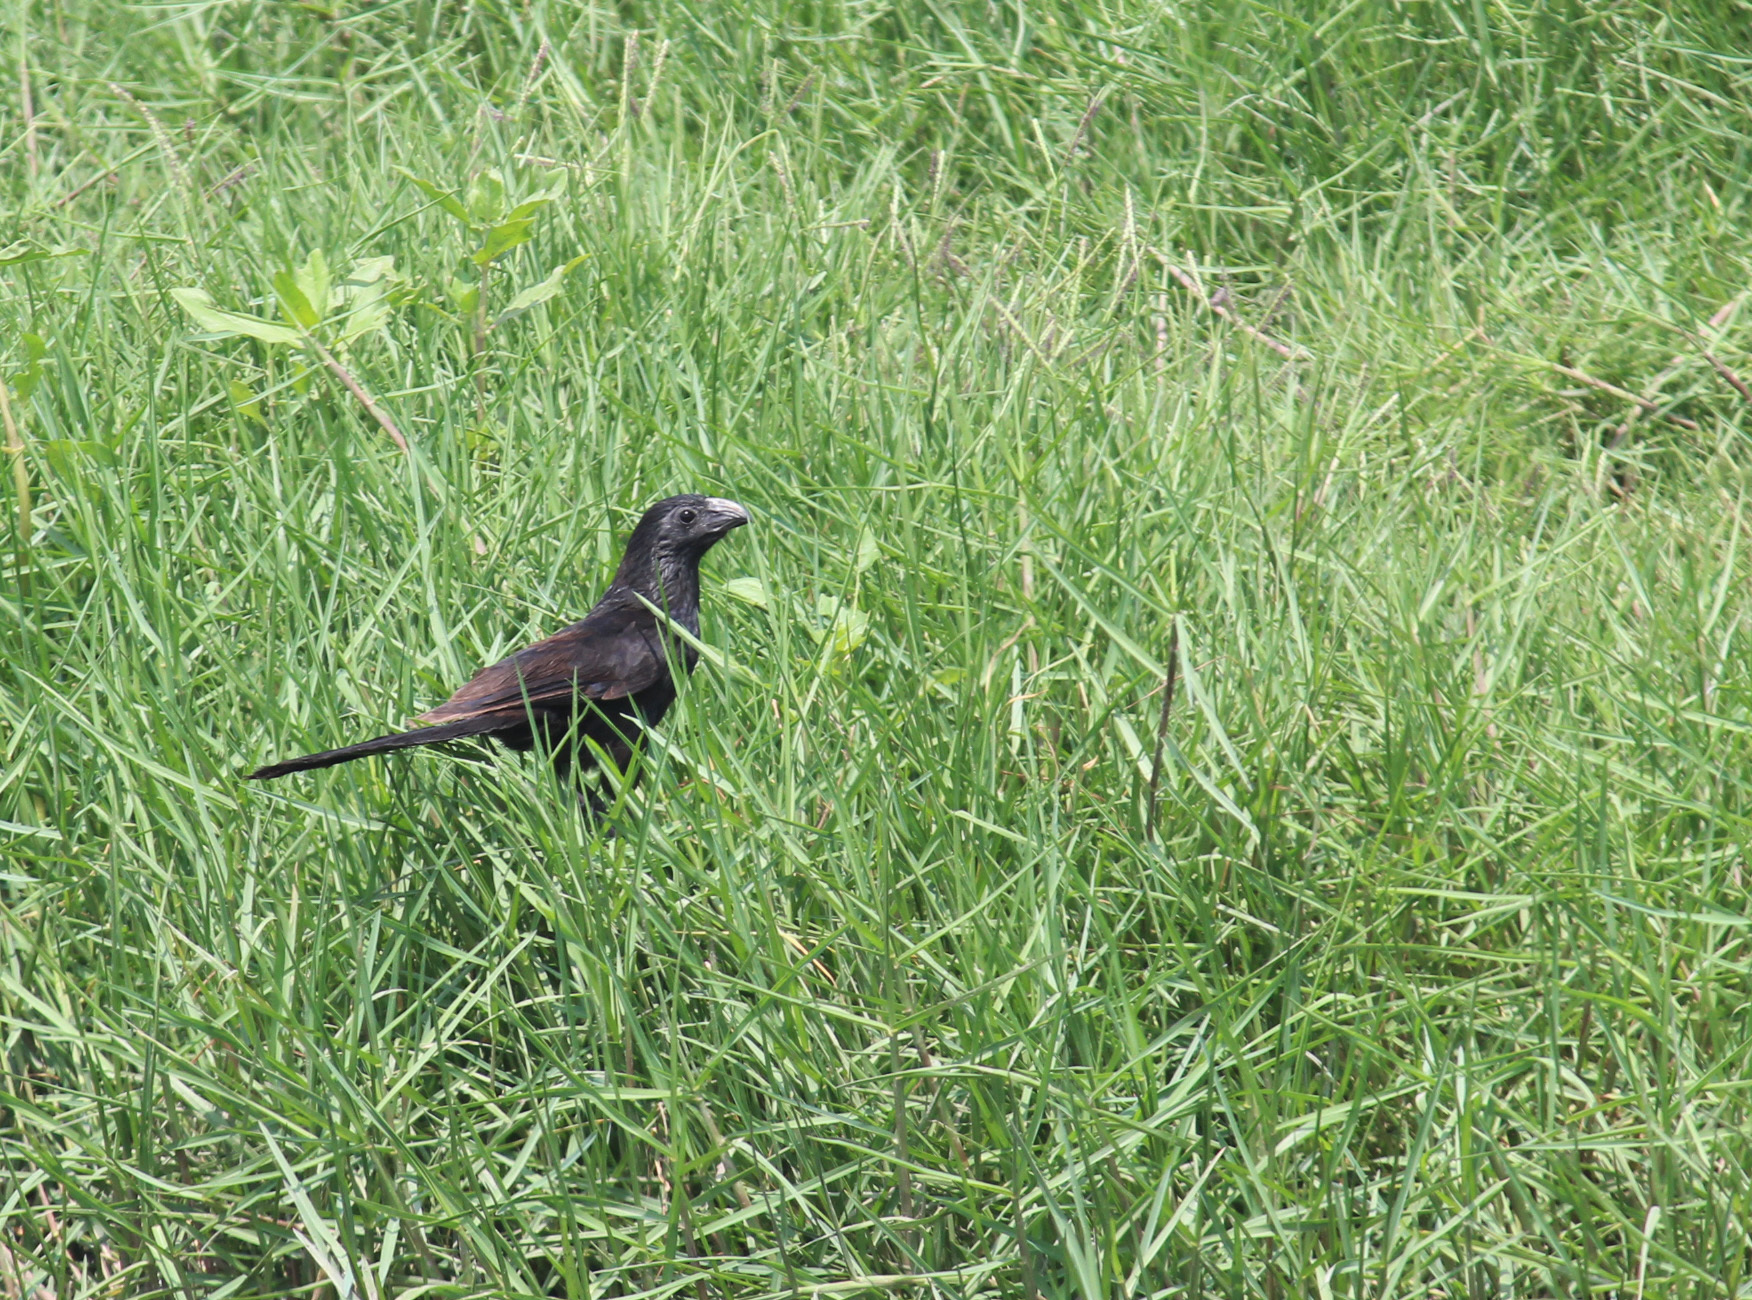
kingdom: Animalia
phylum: Chordata
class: Aves
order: Cuculiformes
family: Cuculidae
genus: Crotophaga
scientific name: Crotophaga sulcirostris
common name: Groove-billed ani
